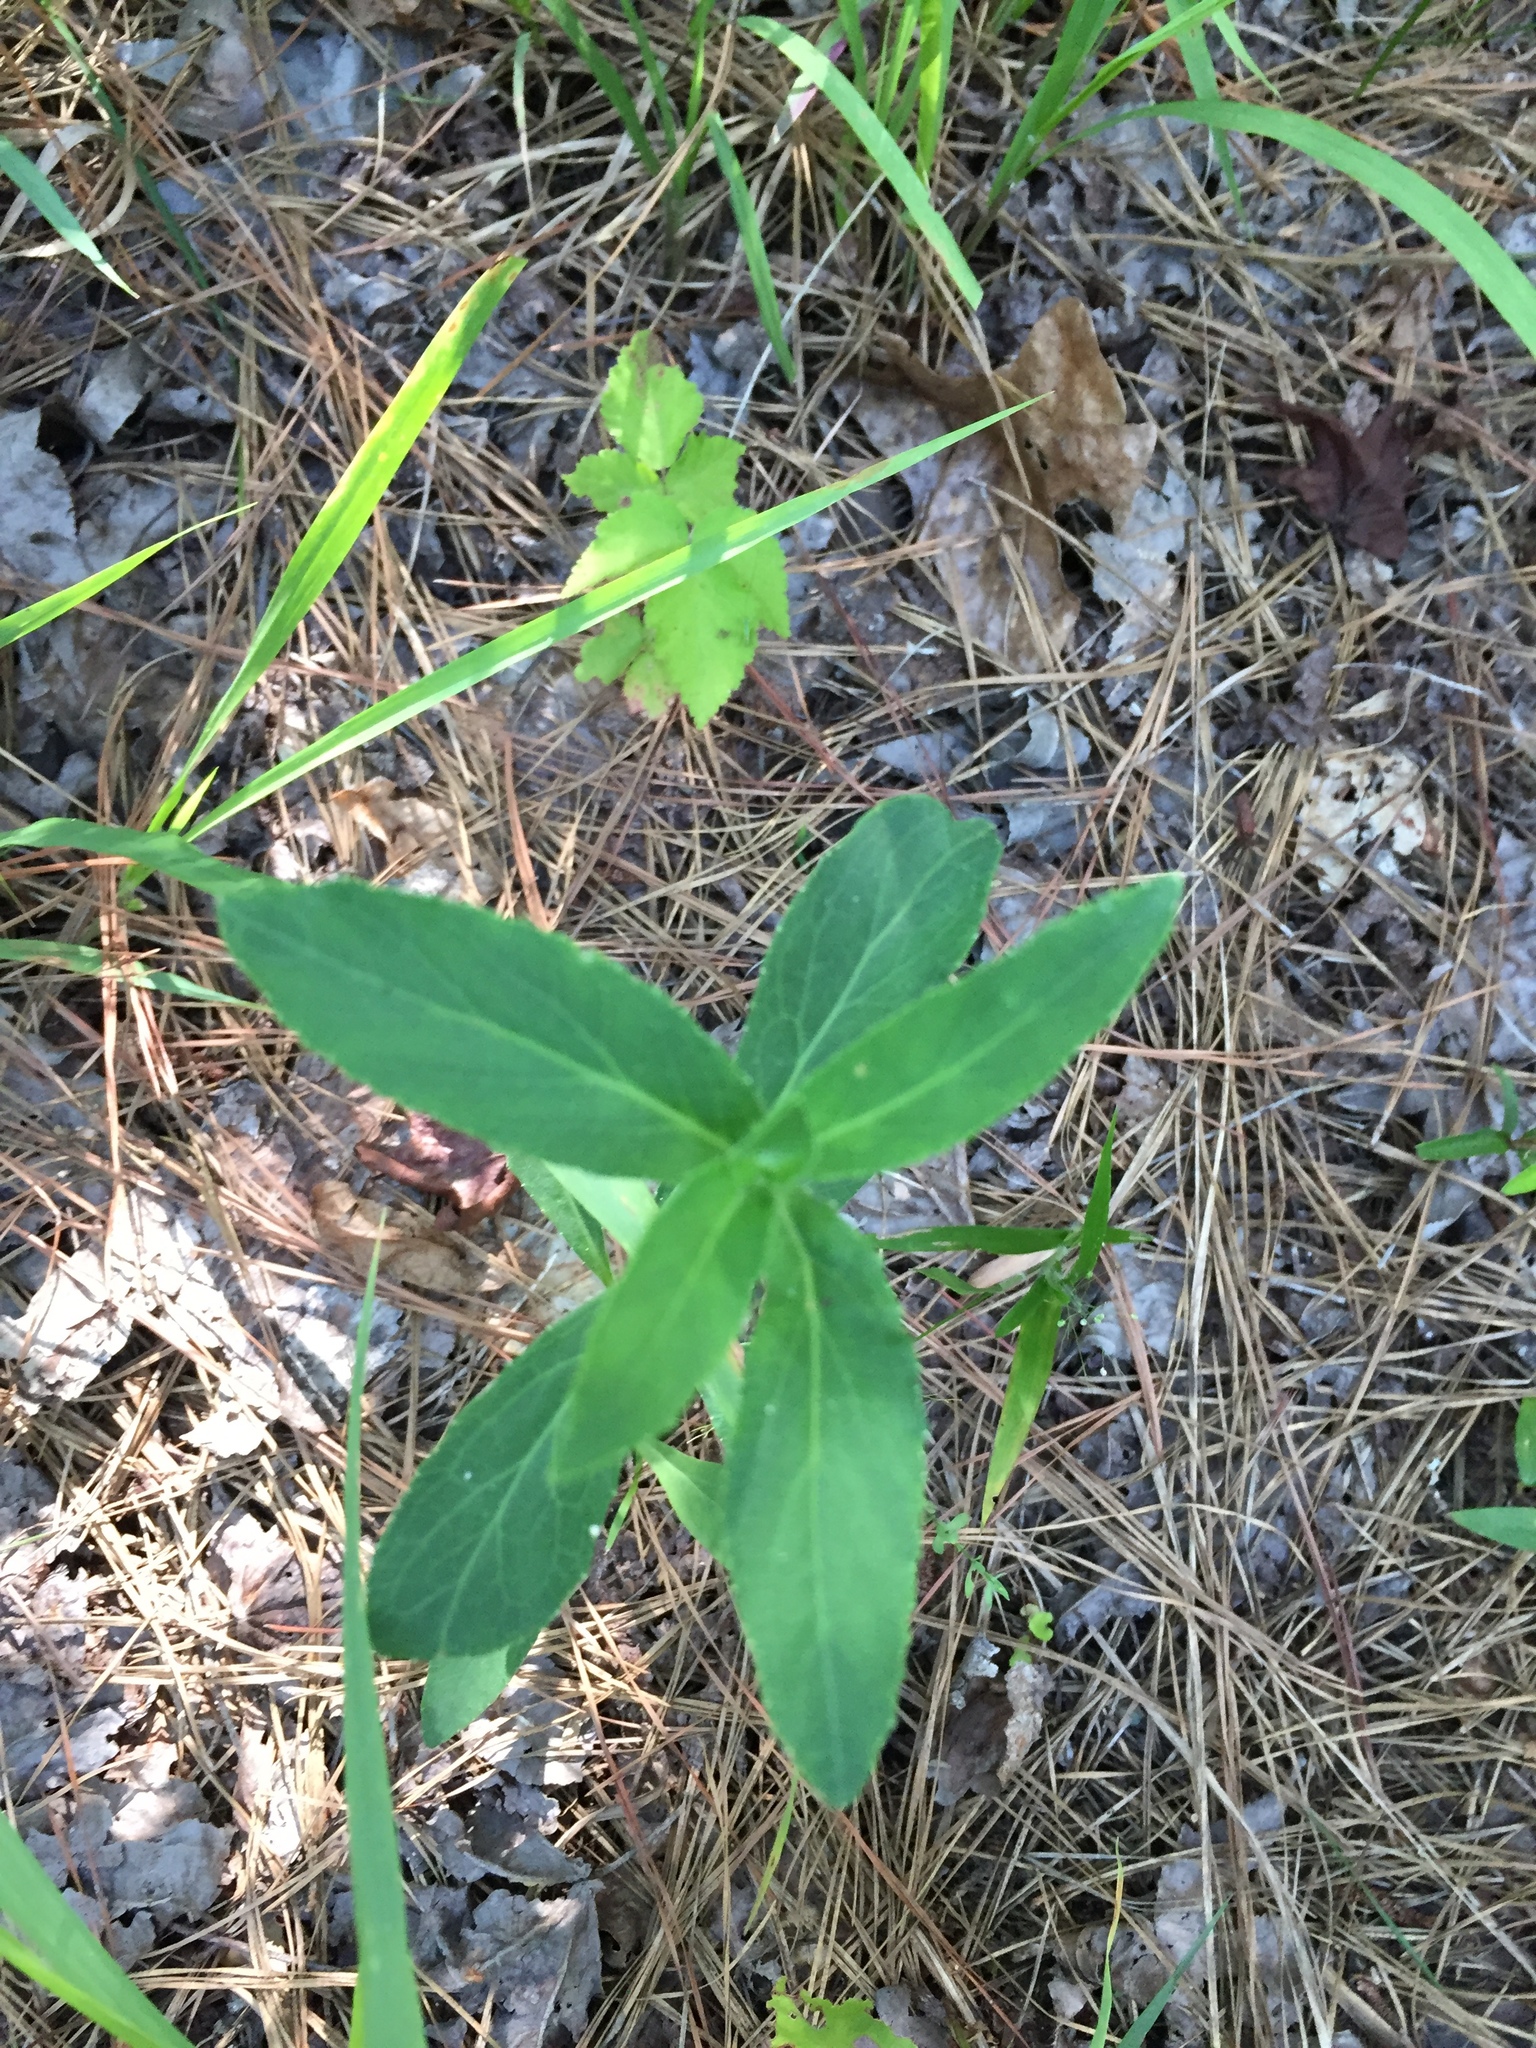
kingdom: Plantae
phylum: Tracheophyta
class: Magnoliopsida
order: Asterales
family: Campanulaceae
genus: Lobelia
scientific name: Lobelia puberula
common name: Purple dewdrop
